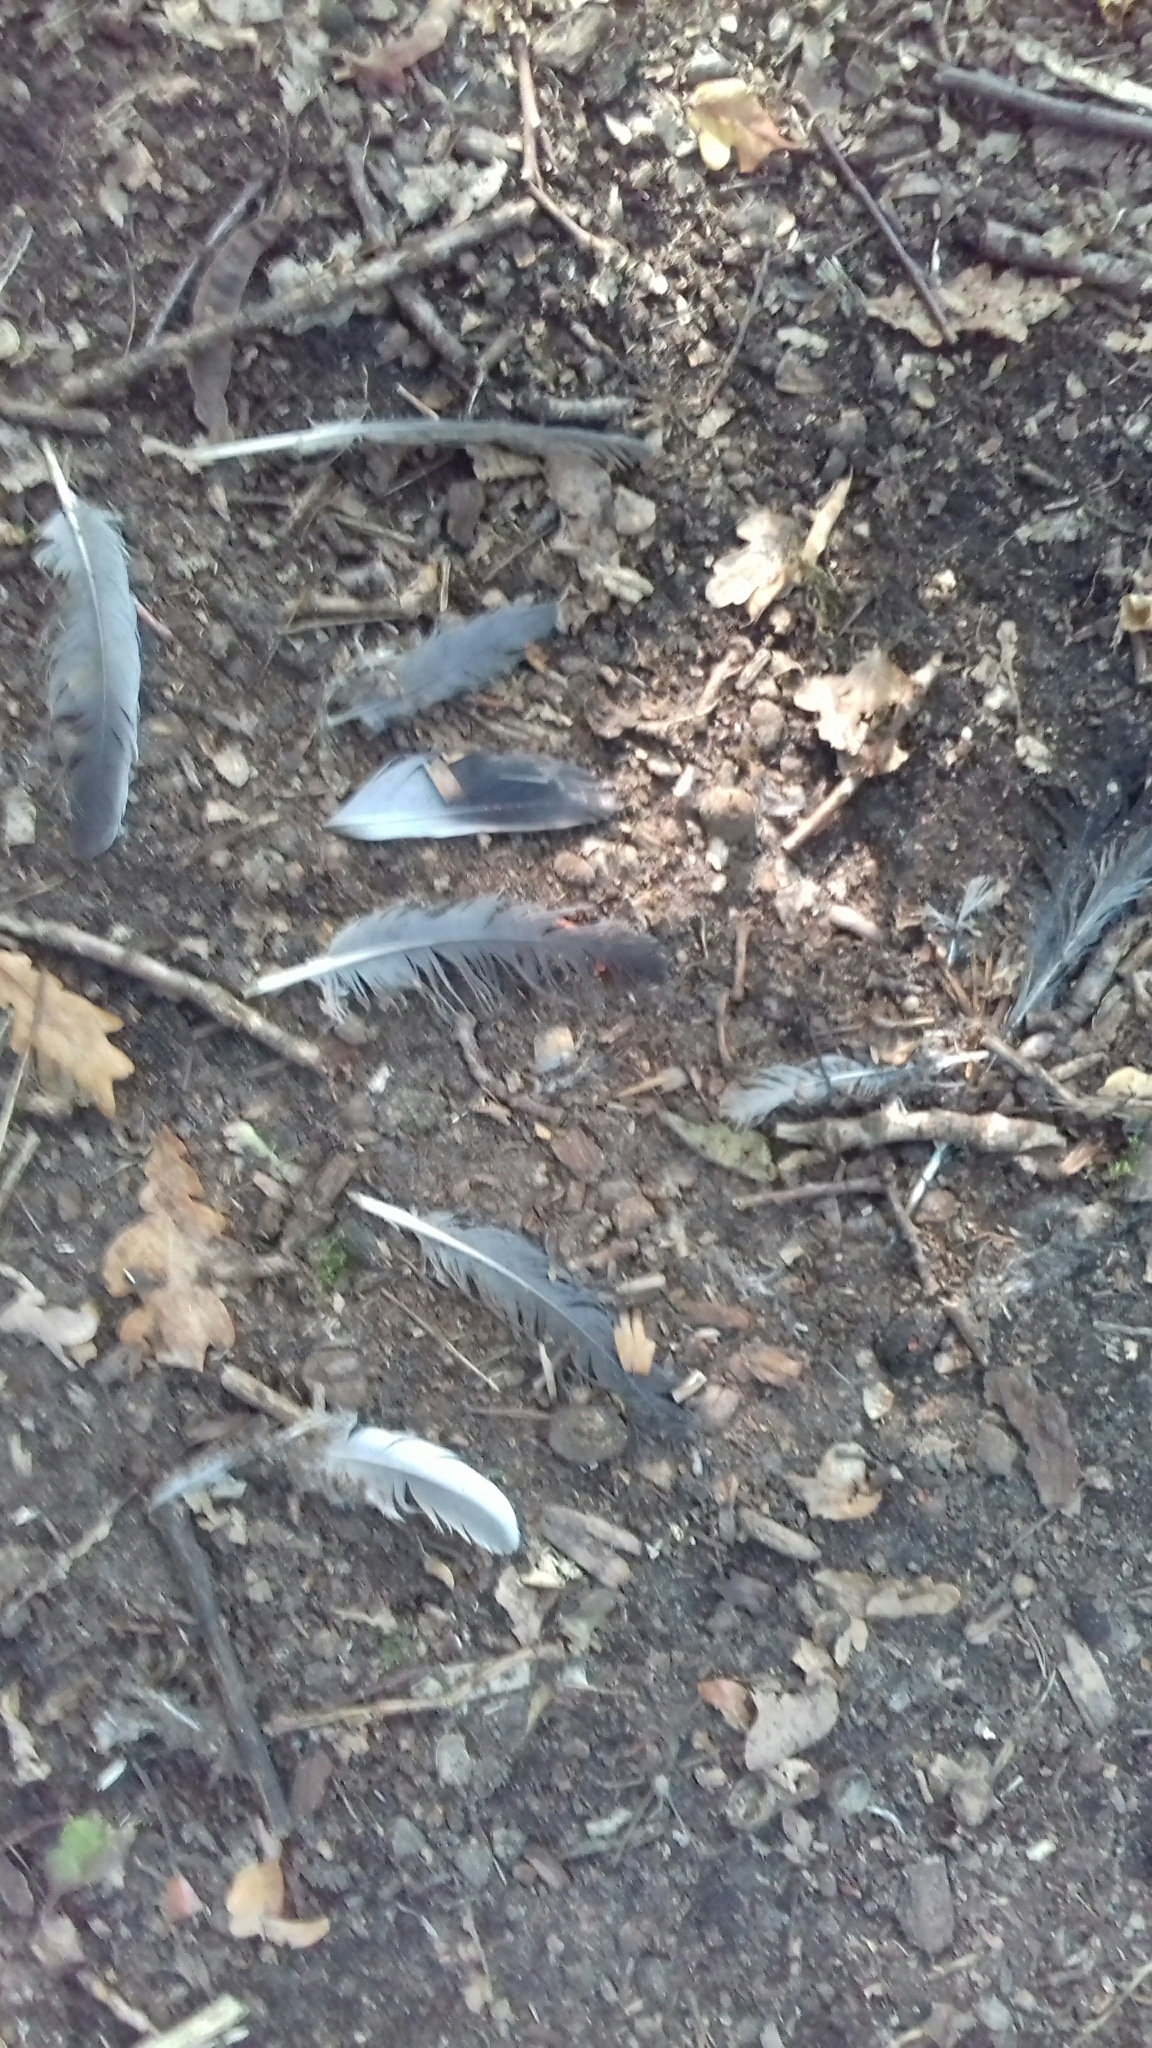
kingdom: Animalia
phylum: Chordata
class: Aves
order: Columbiformes
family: Columbidae
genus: Columba
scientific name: Columba palumbus
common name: Common wood pigeon
